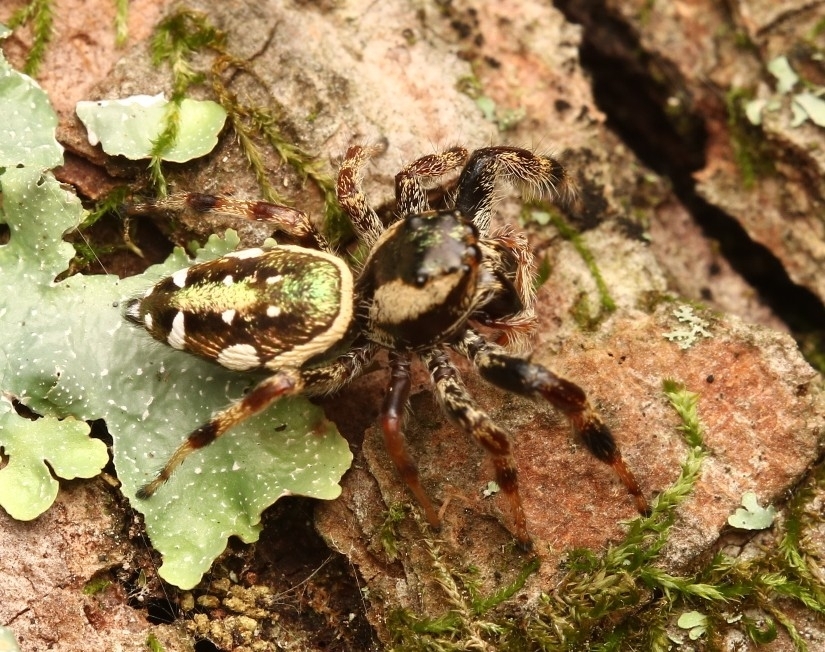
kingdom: Animalia
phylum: Arthropoda
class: Arachnida
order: Araneae
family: Salticidae
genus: Paraphidippus
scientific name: Paraphidippus aurantius
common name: Jumping spiders
